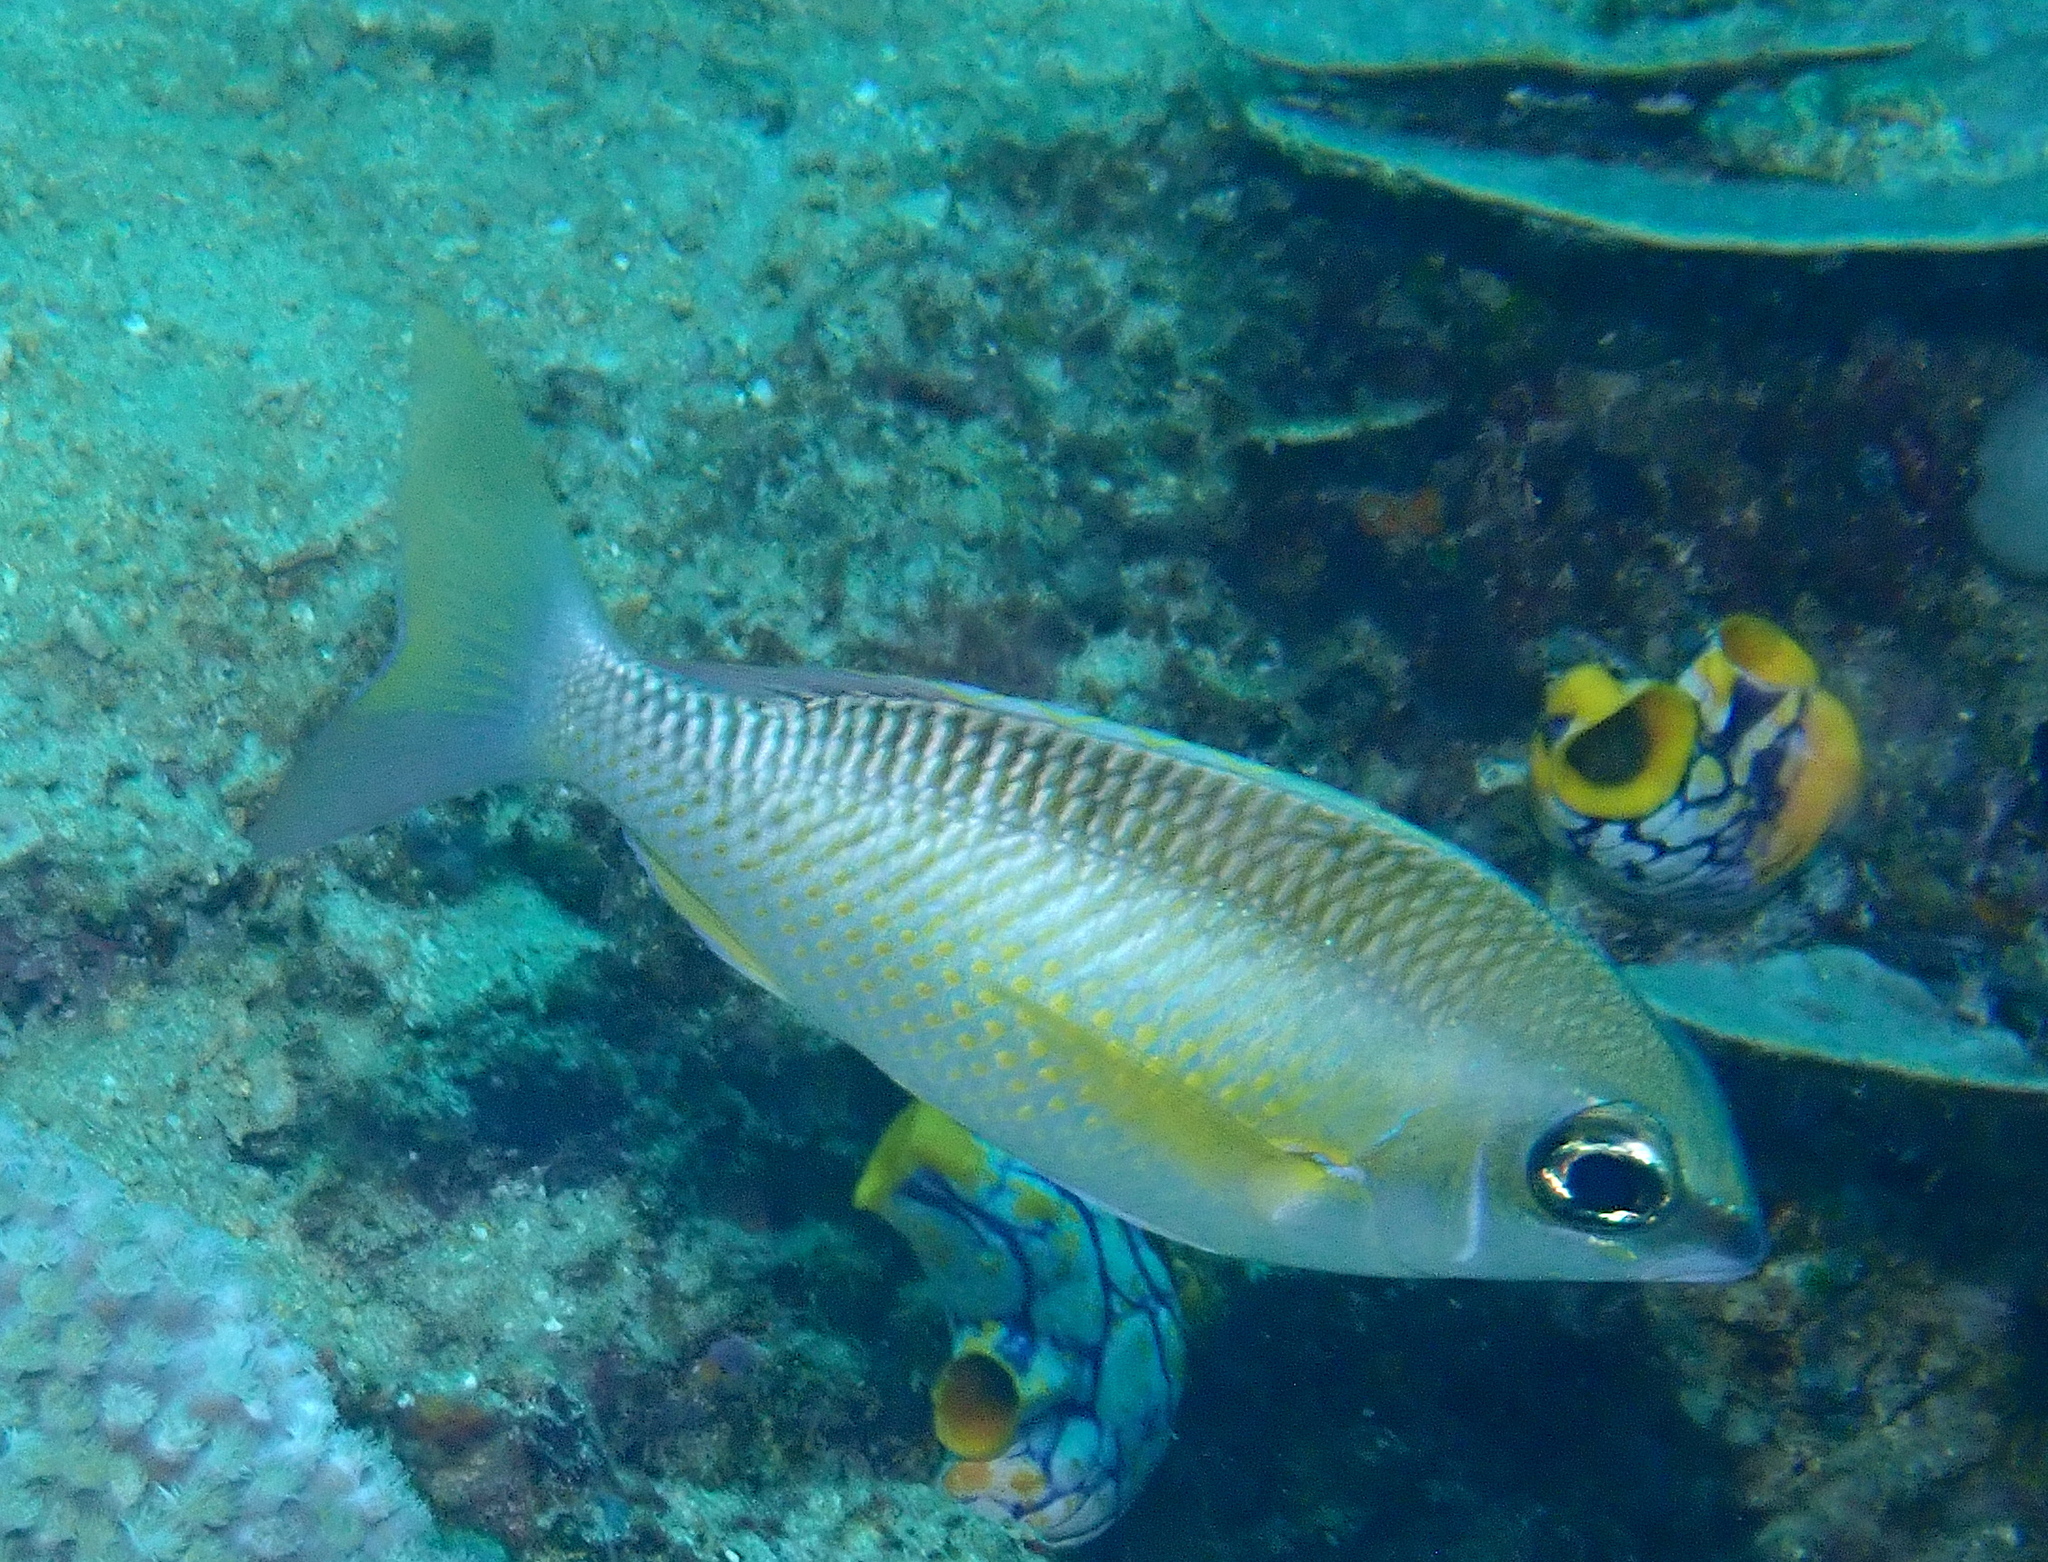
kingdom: Animalia
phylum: Chordata
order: Perciformes
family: Nemipteridae
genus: Scolopsis
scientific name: Scolopsis margaritifera
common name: Pearly monocle bream
